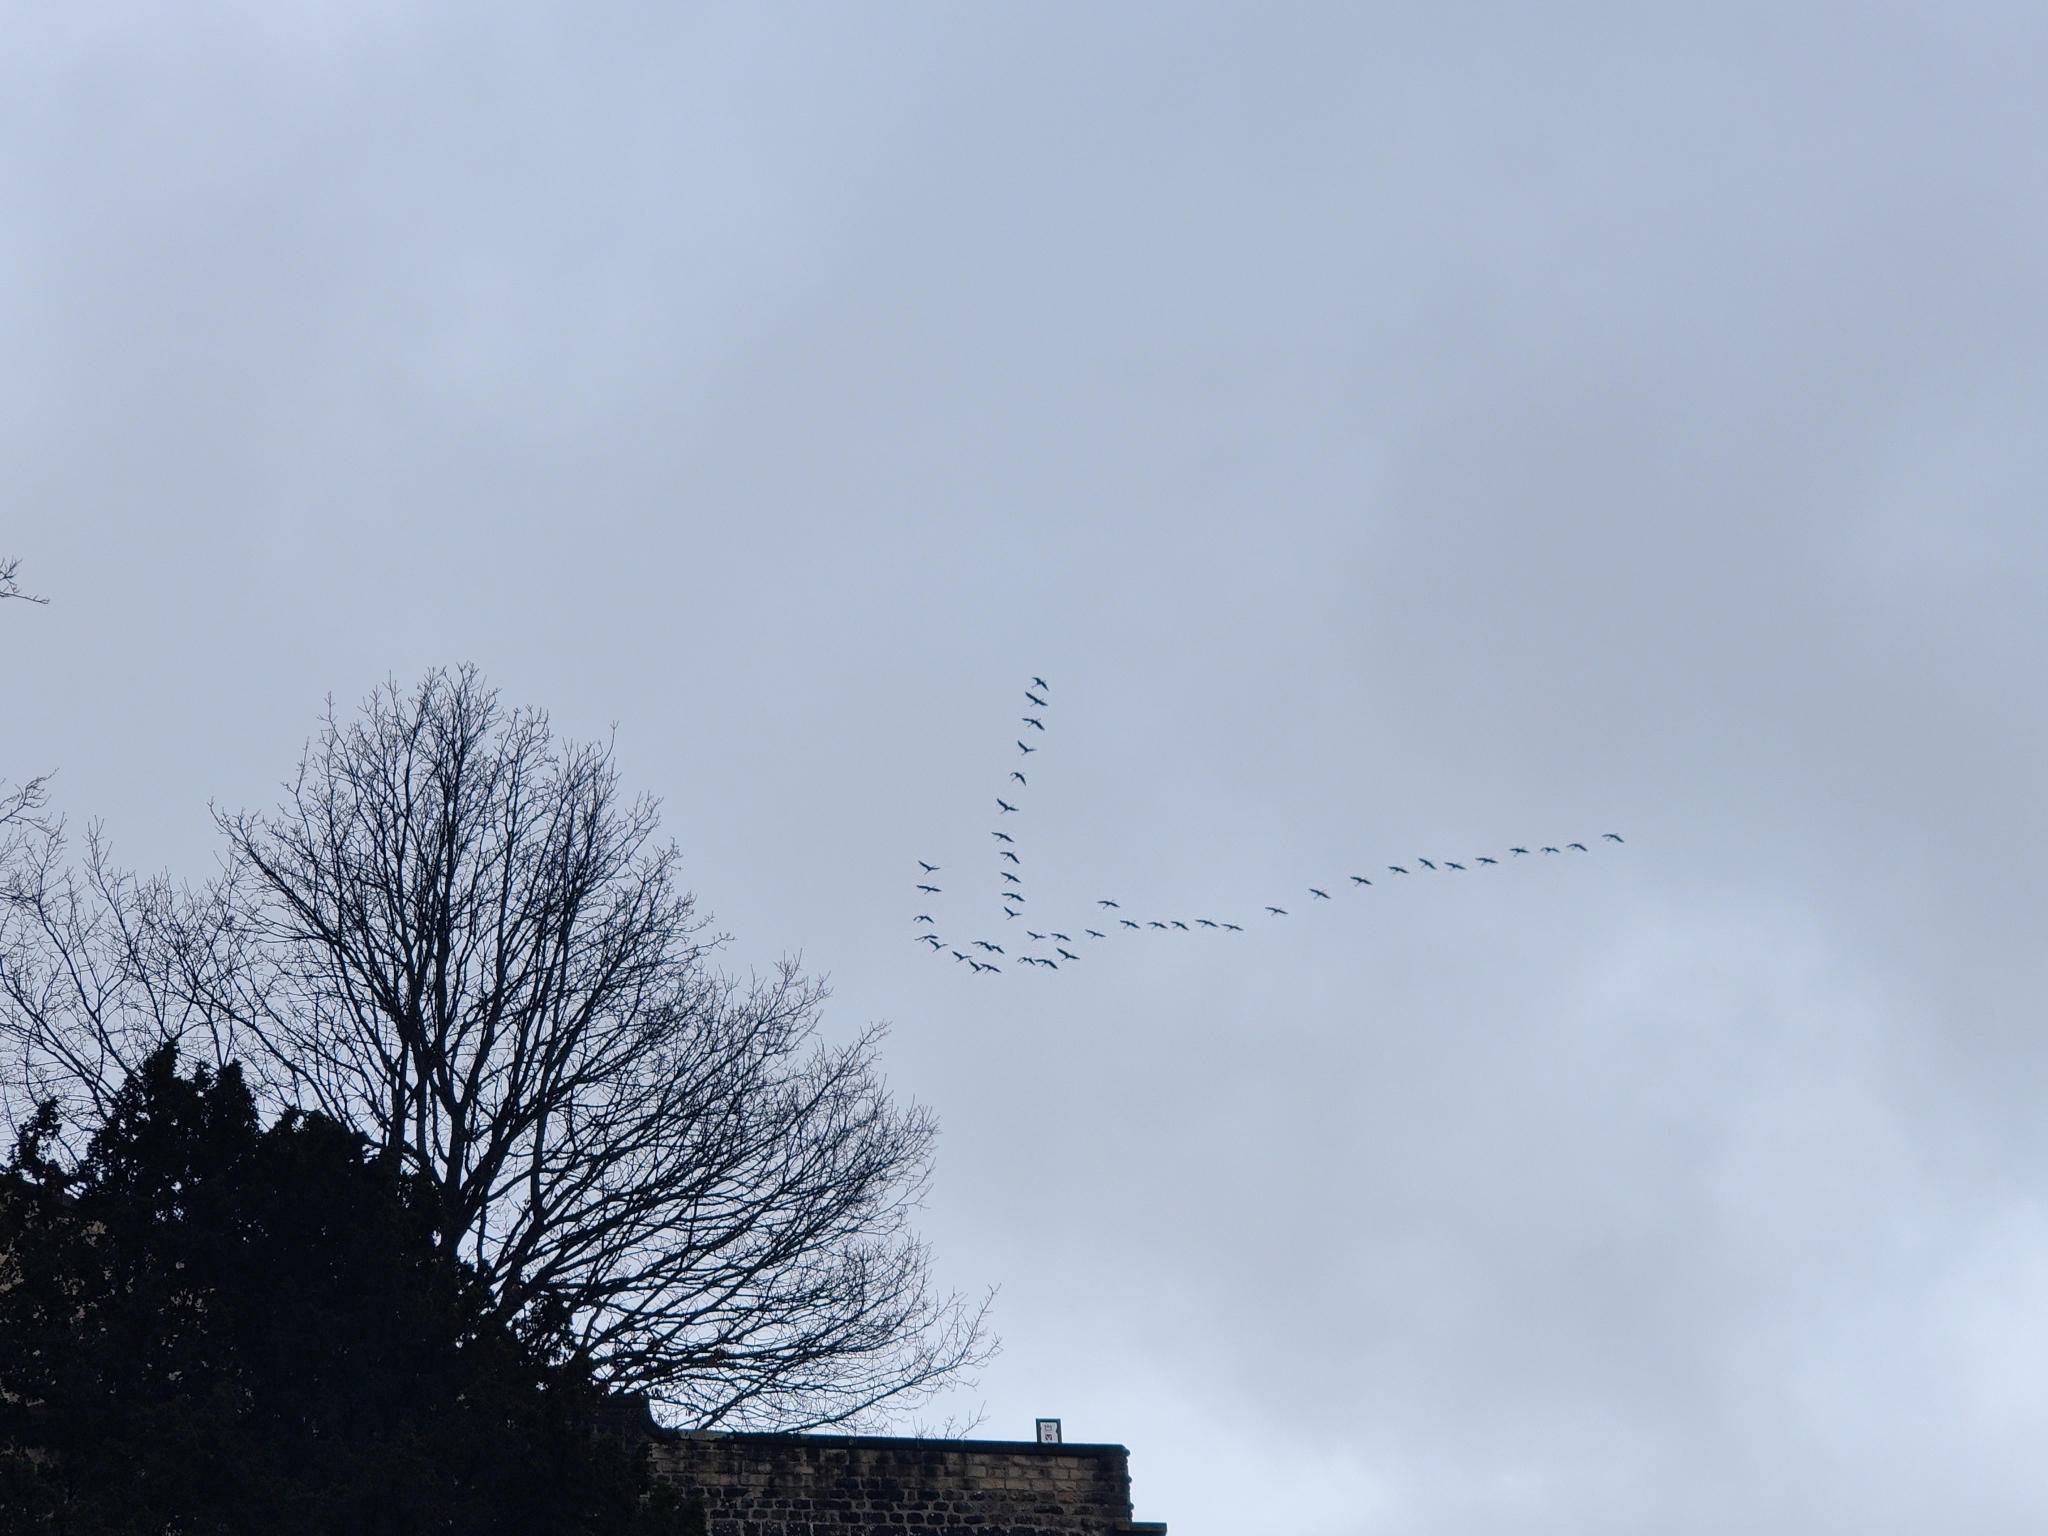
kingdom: Animalia
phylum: Chordata
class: Aves
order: Gruiformes
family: Gruidae
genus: Grus
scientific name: Grus grus
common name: Common crane
